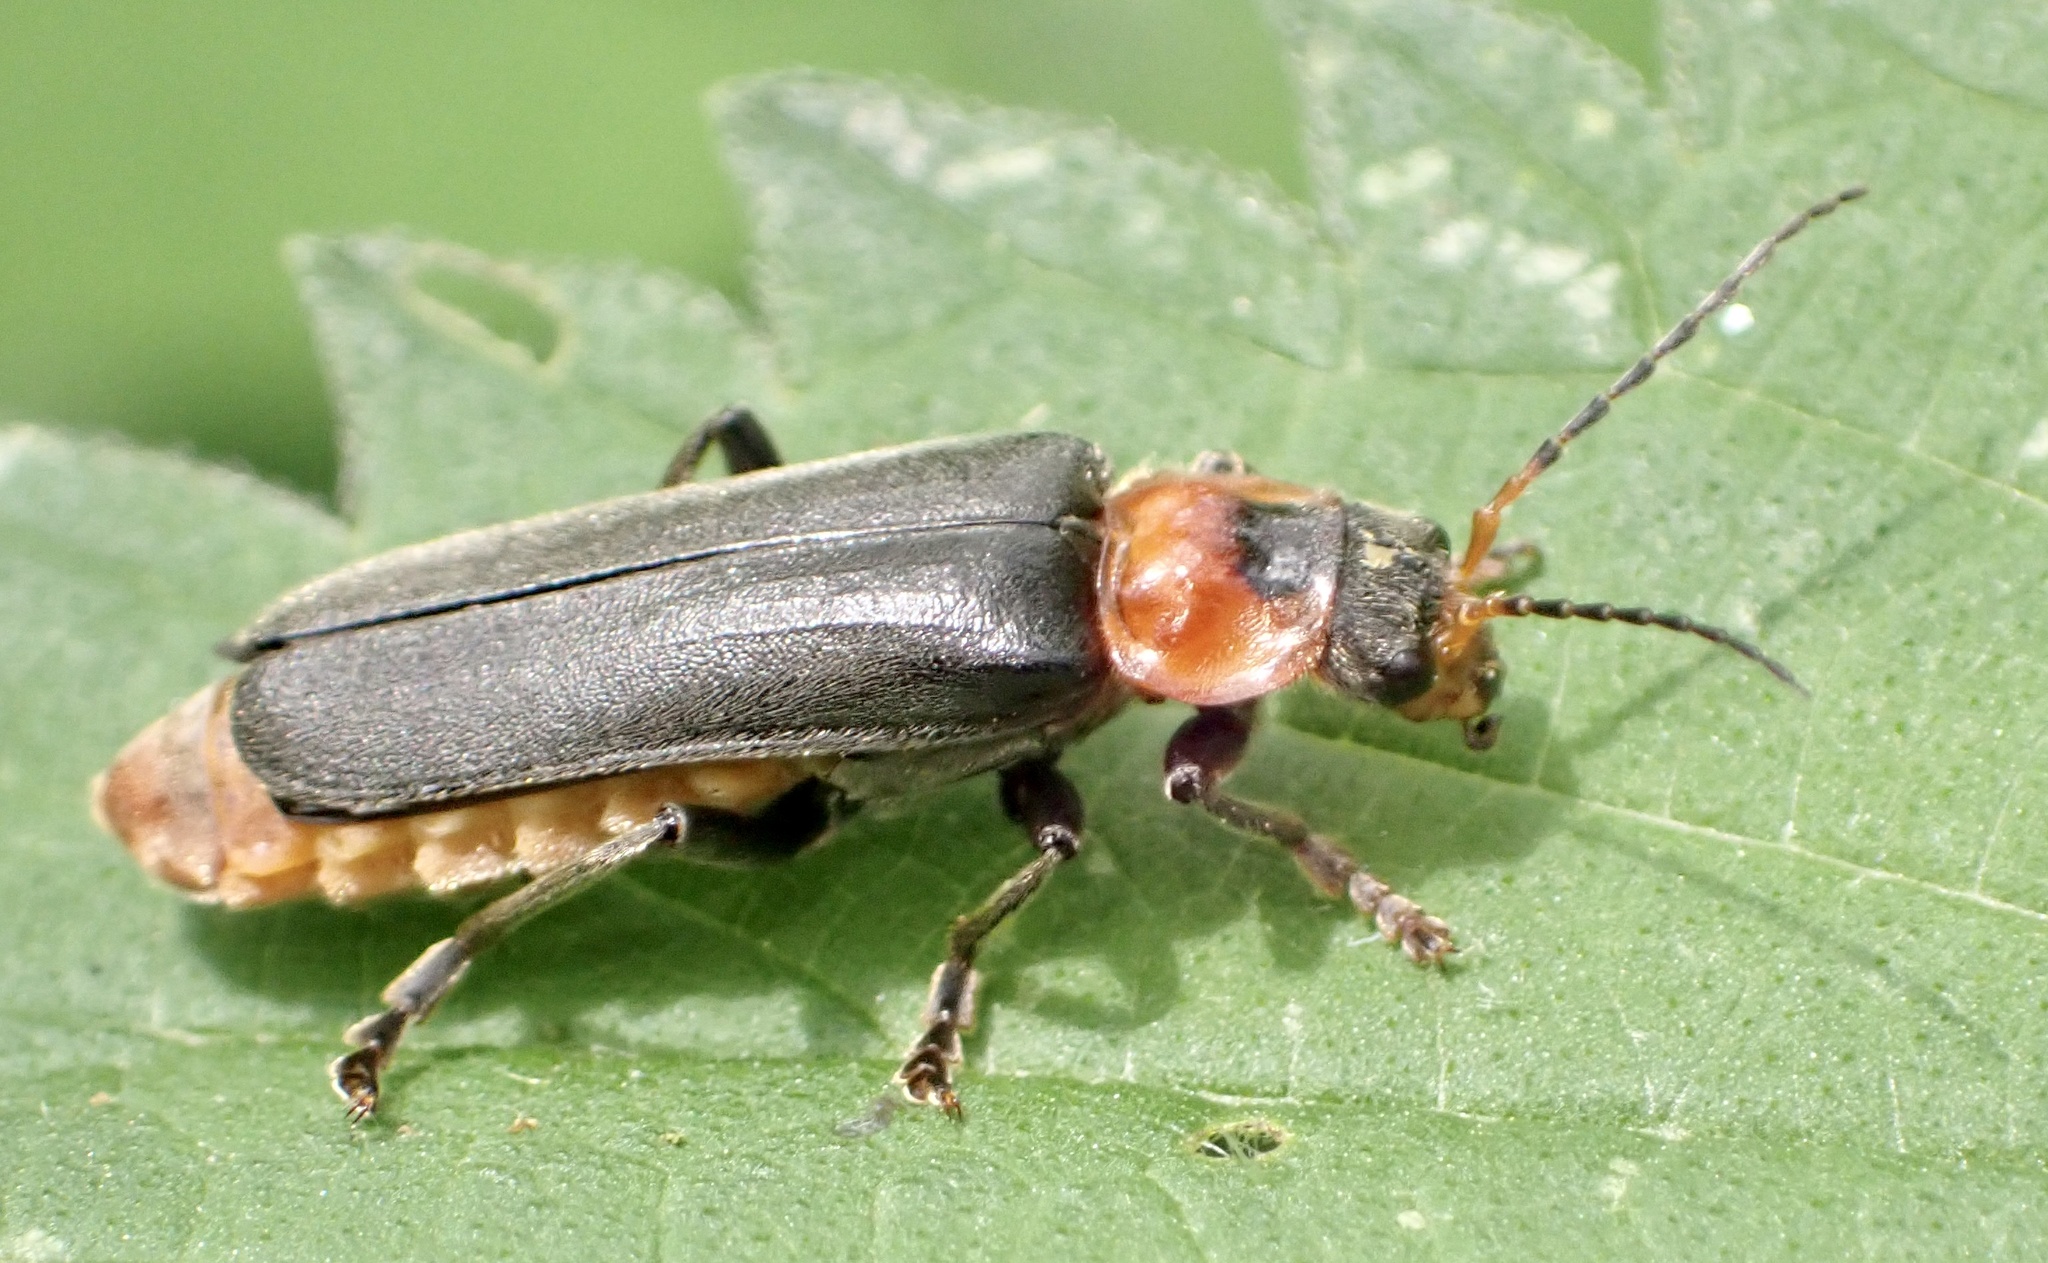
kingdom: Animalia
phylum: Arthropoda
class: Insecta
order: Coleoptera
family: Cantharidae
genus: Cantharis
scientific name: Cantharis fusca
